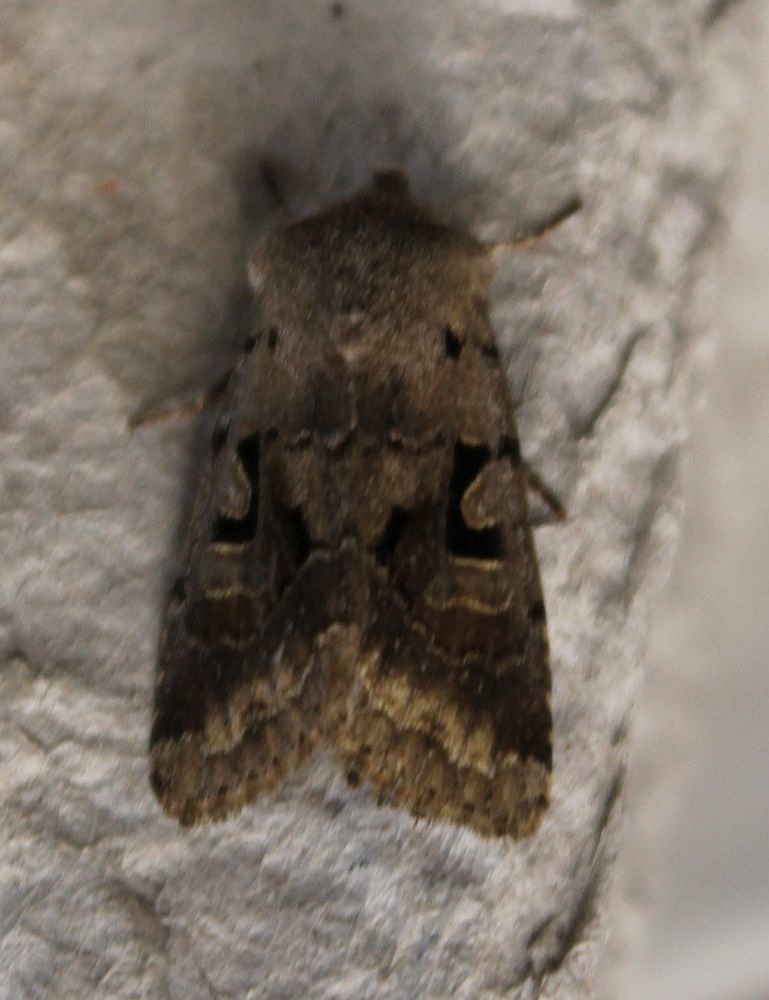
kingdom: Animalia
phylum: Arthropoda
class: Insecta
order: Lepidoptera
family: Noctuidae
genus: Orthosia
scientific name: Orthosia gothica
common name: Hebrew character
